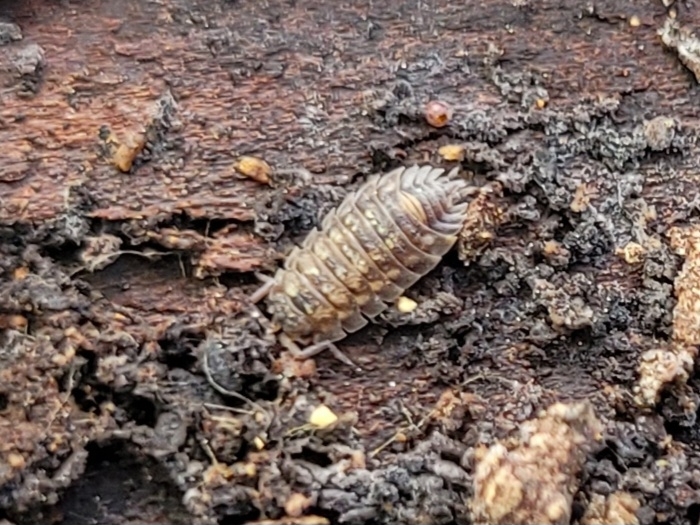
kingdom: Animalia
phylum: Arthropoda
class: Malacostraca
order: Isopoda
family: Oniscidae
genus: Oniscus
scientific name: Oniscus asellus
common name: Common shiny woodlouse
